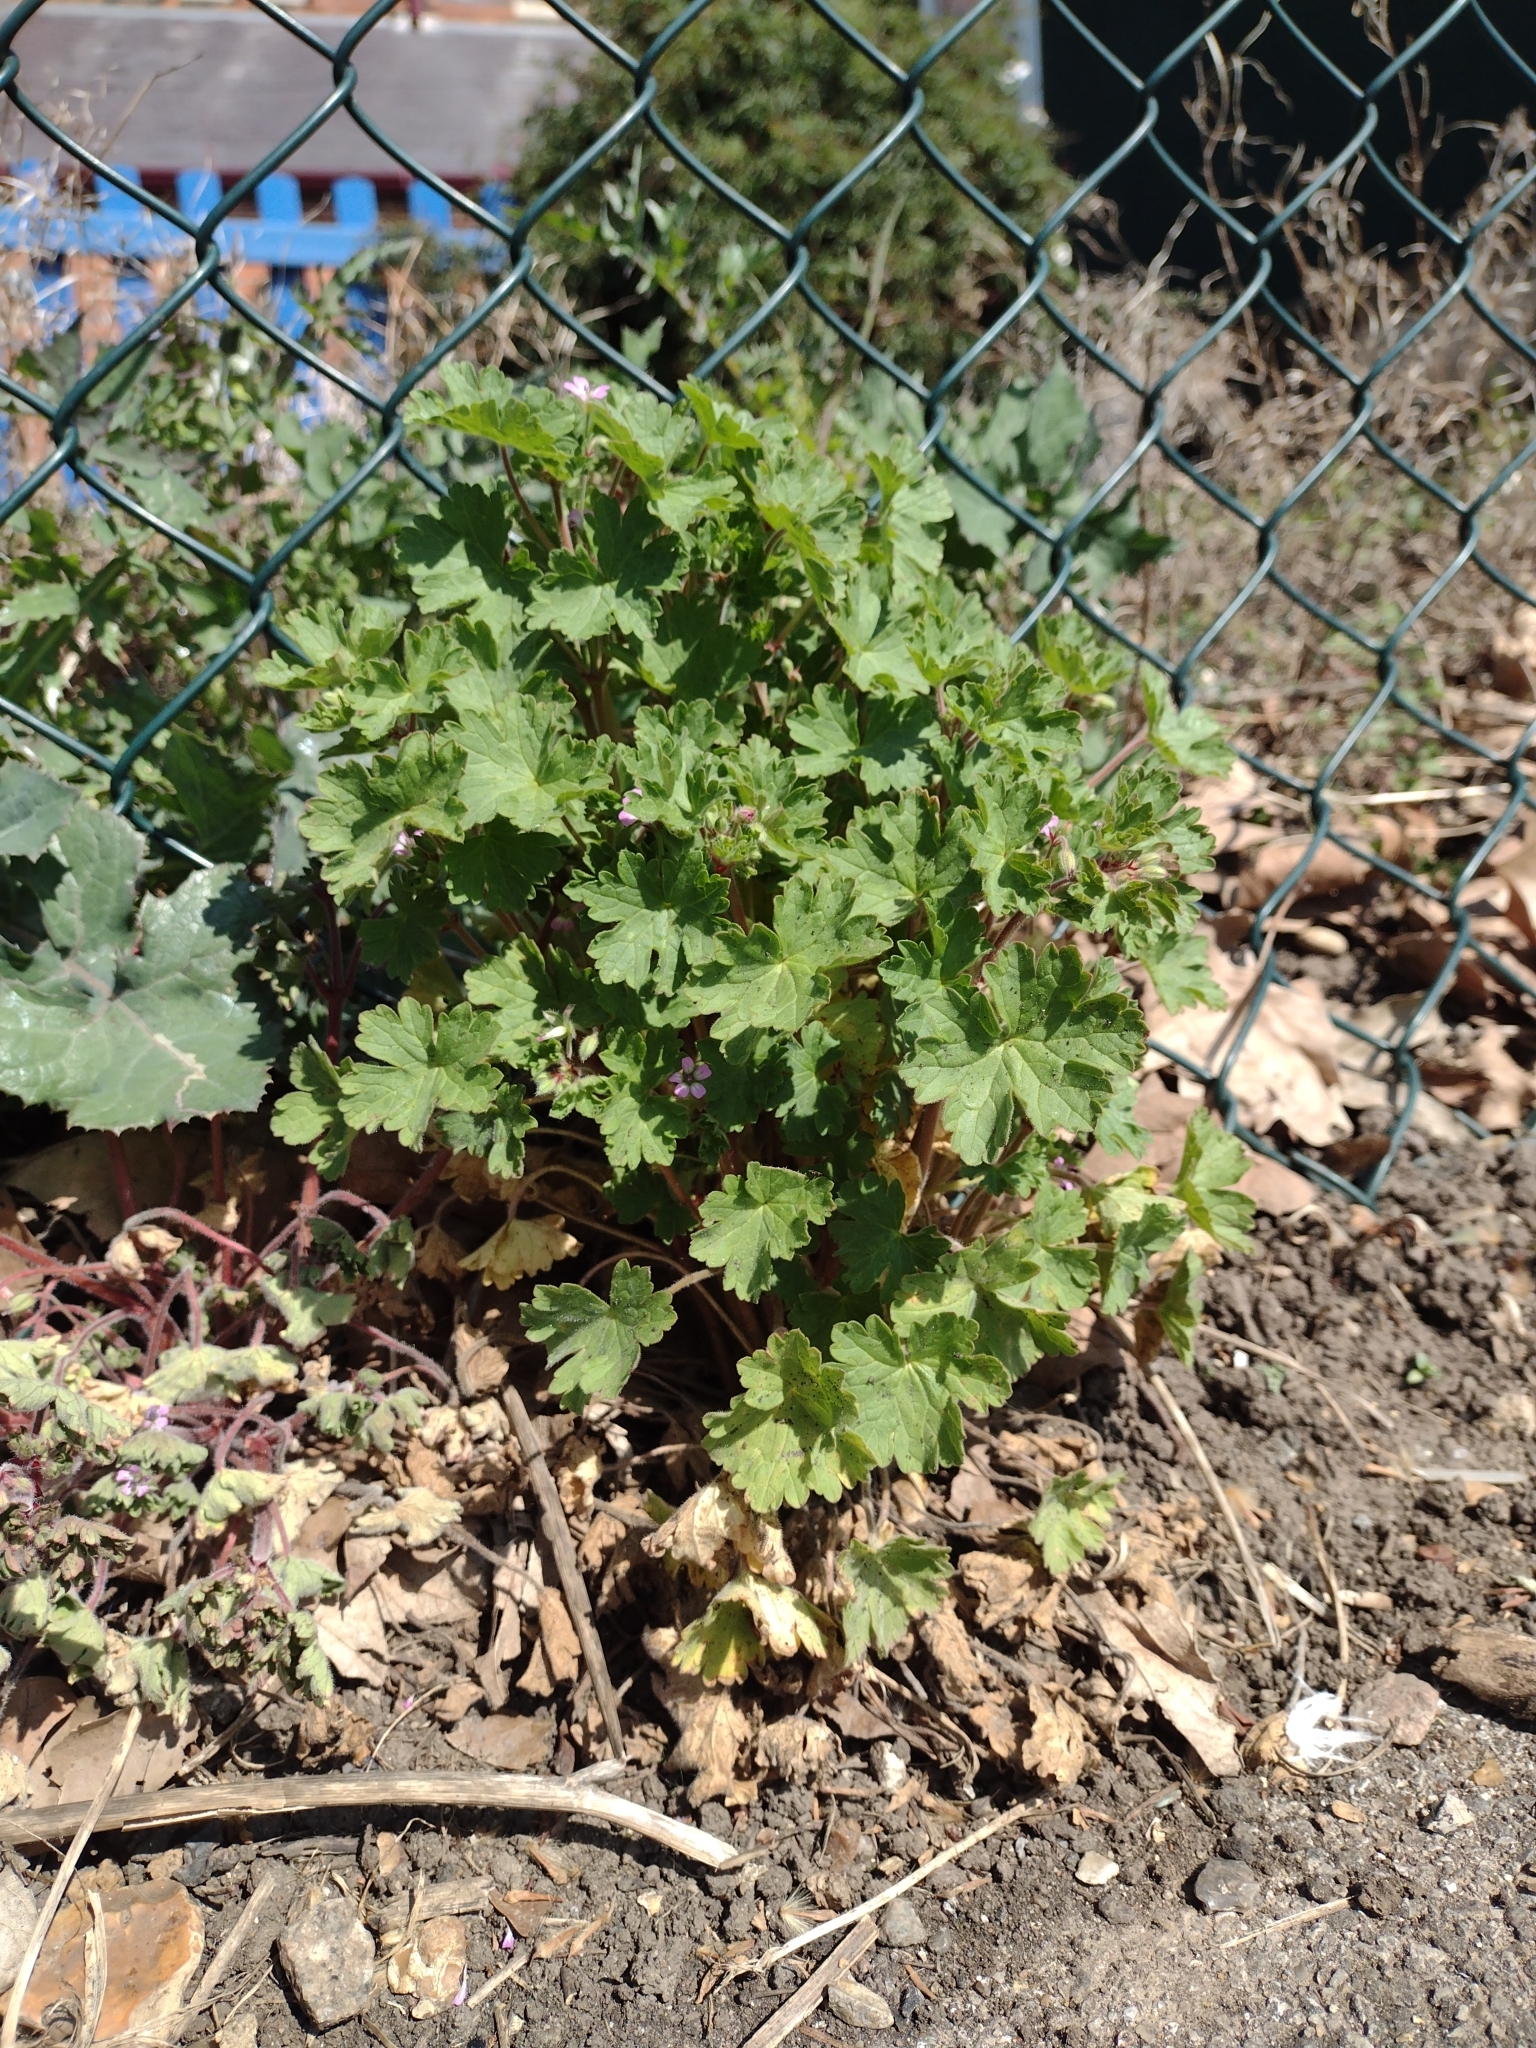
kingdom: Plantae
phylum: Tracheophyta
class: Magnoliopsida
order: Geraniales
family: Geraniaceae
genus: Geranium
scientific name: Geranium rotundifolium
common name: Round-leaved crane's-bill
